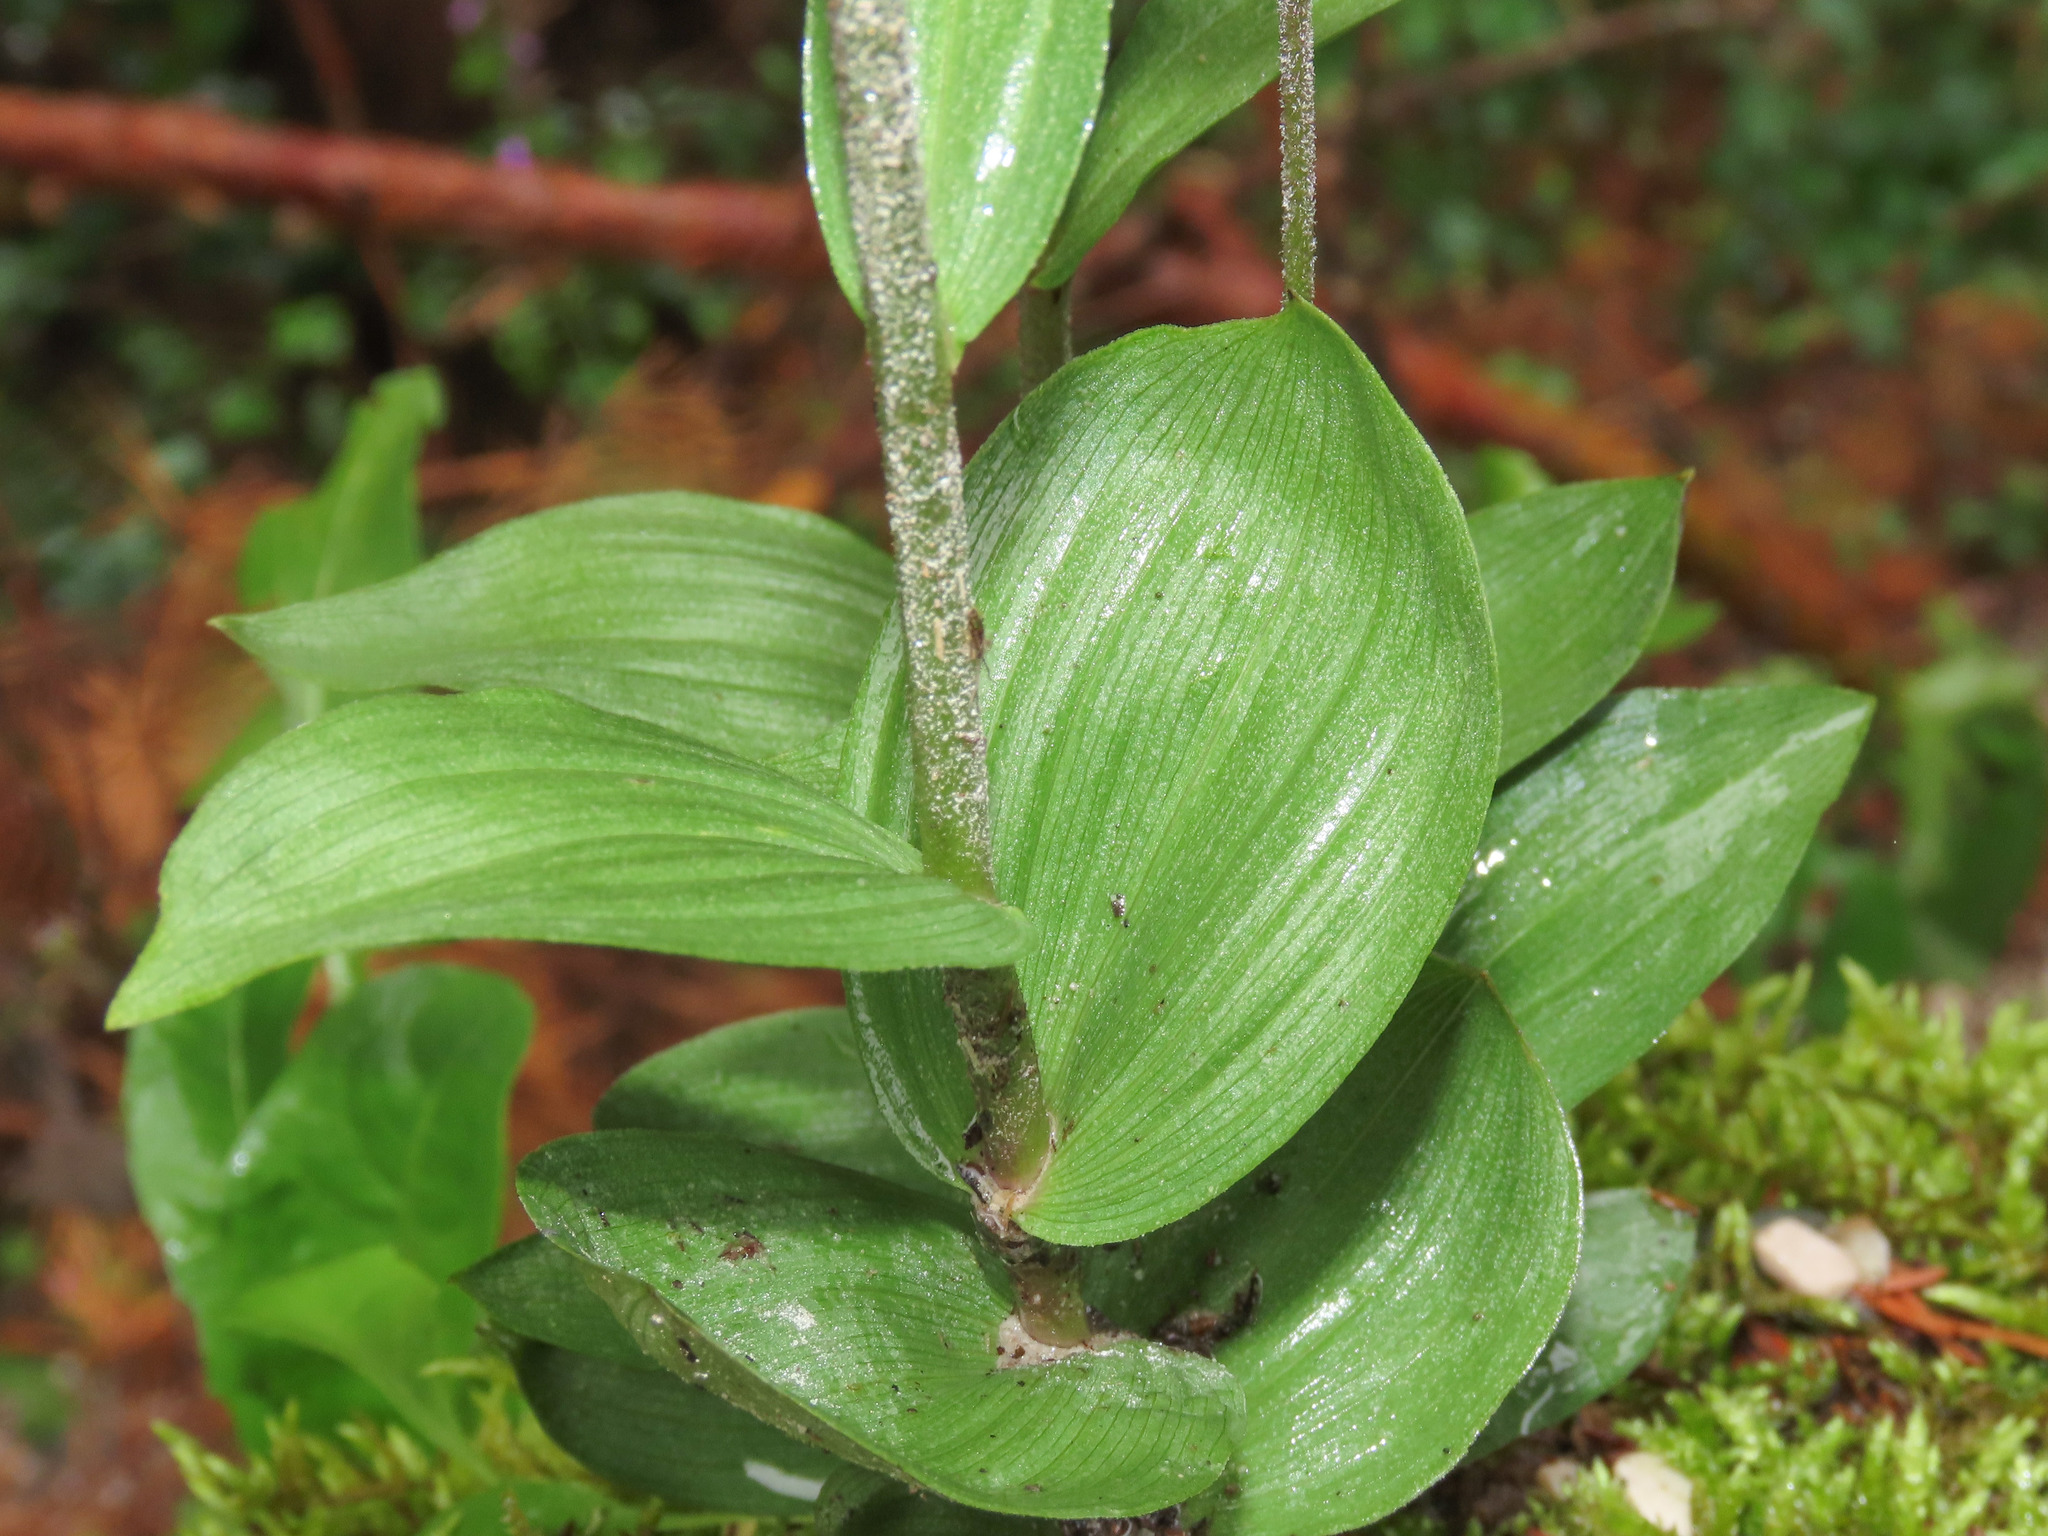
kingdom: Plantae
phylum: Tracheophyta
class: Liliopsida
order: Asparagales
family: Orchidaceae
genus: Epipactis
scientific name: Epipactis atrorubens
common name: Dark-red helleborine
